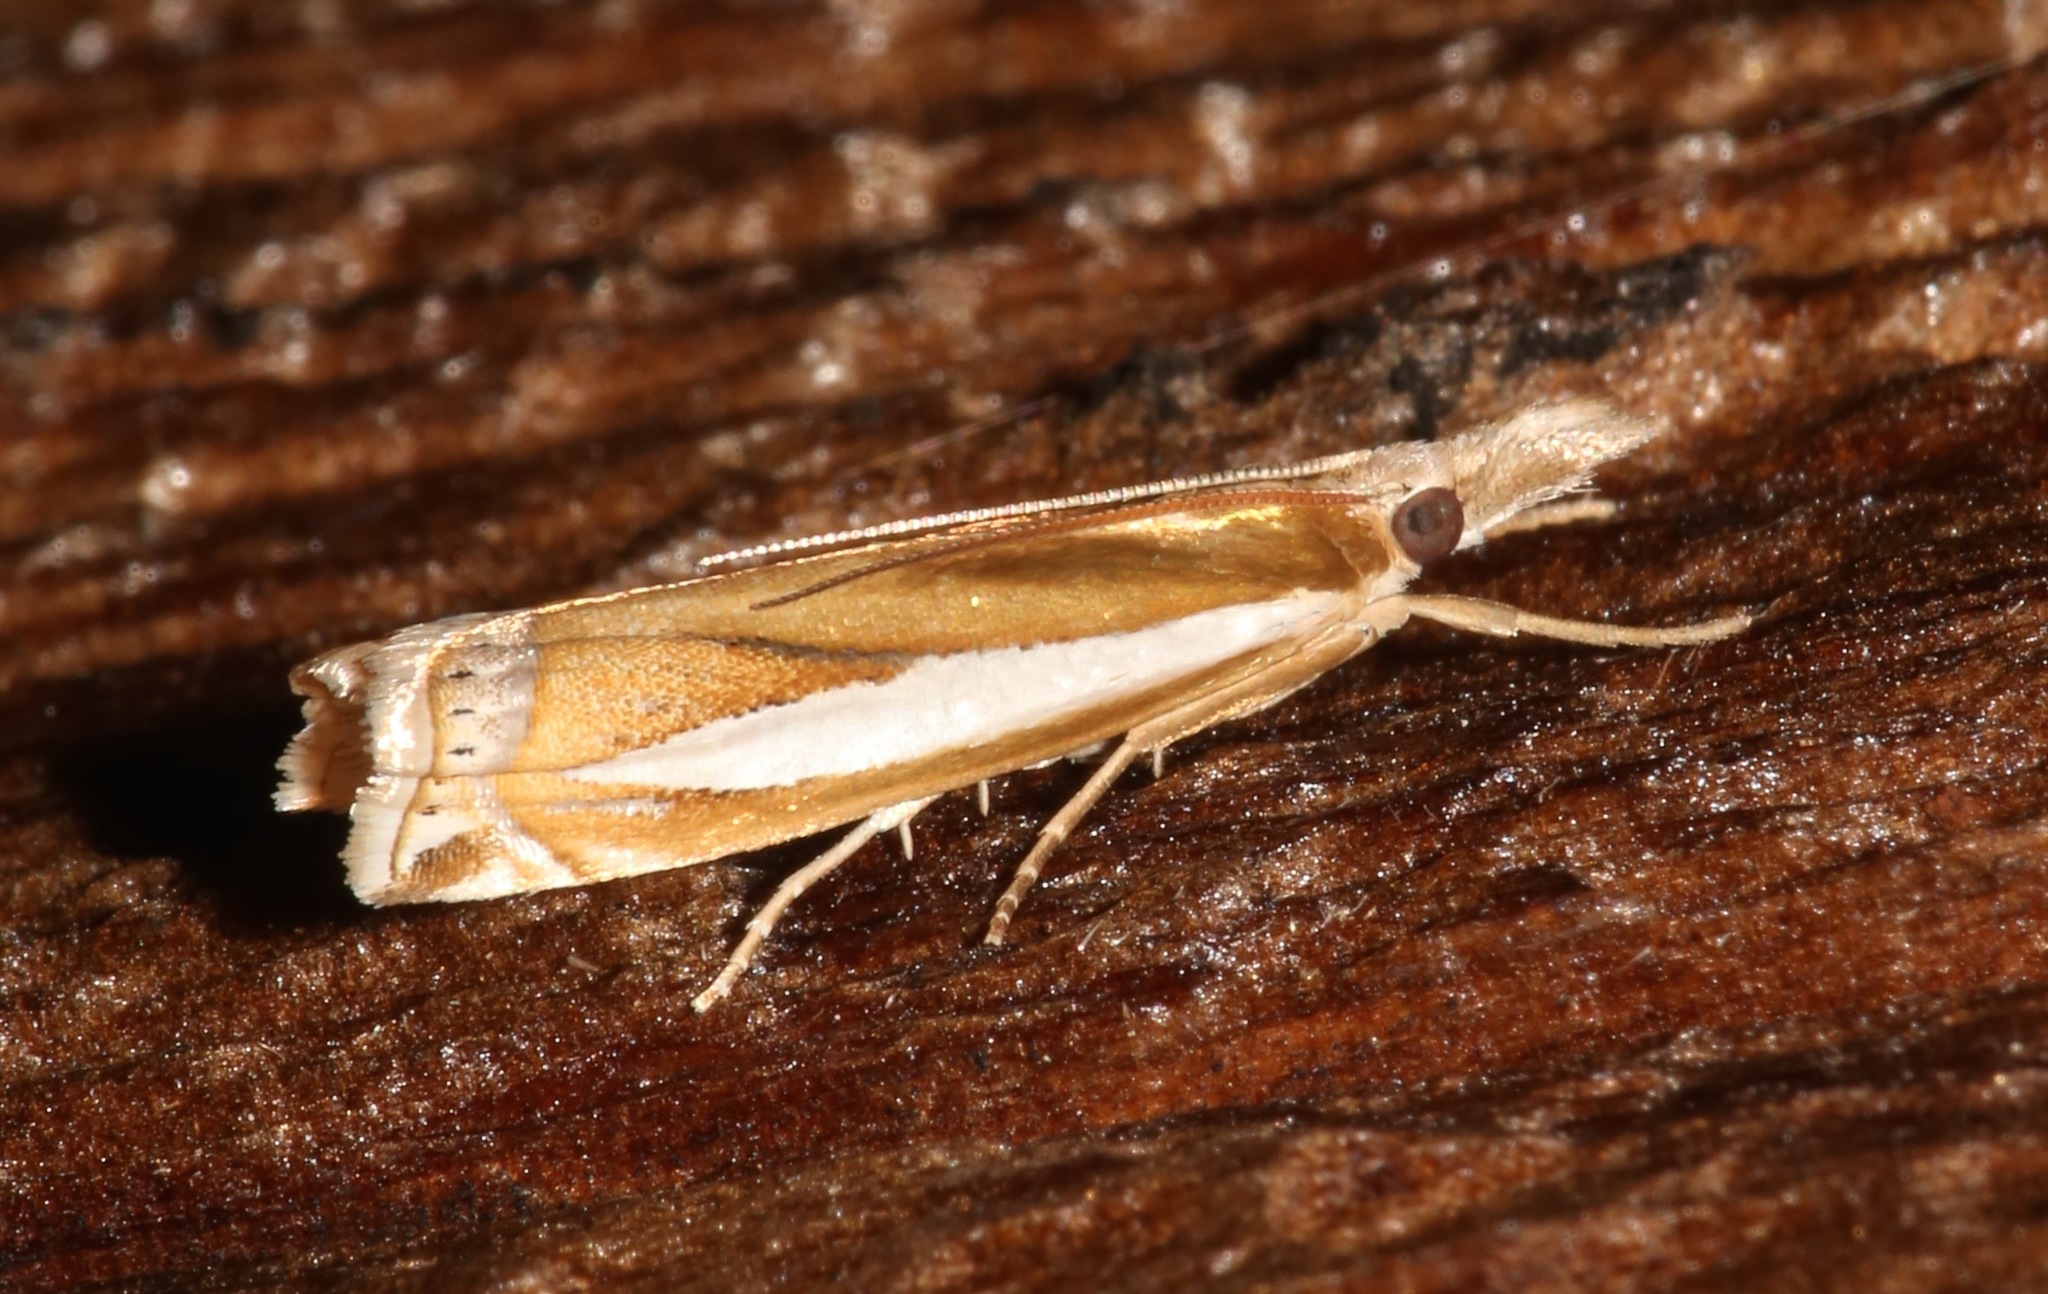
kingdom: Animalia
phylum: Arthropoda
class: Insecta
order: Lepidoptera
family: Crambidae
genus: Crambus
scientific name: Crambus praefectellus
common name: Common grass-veneer
